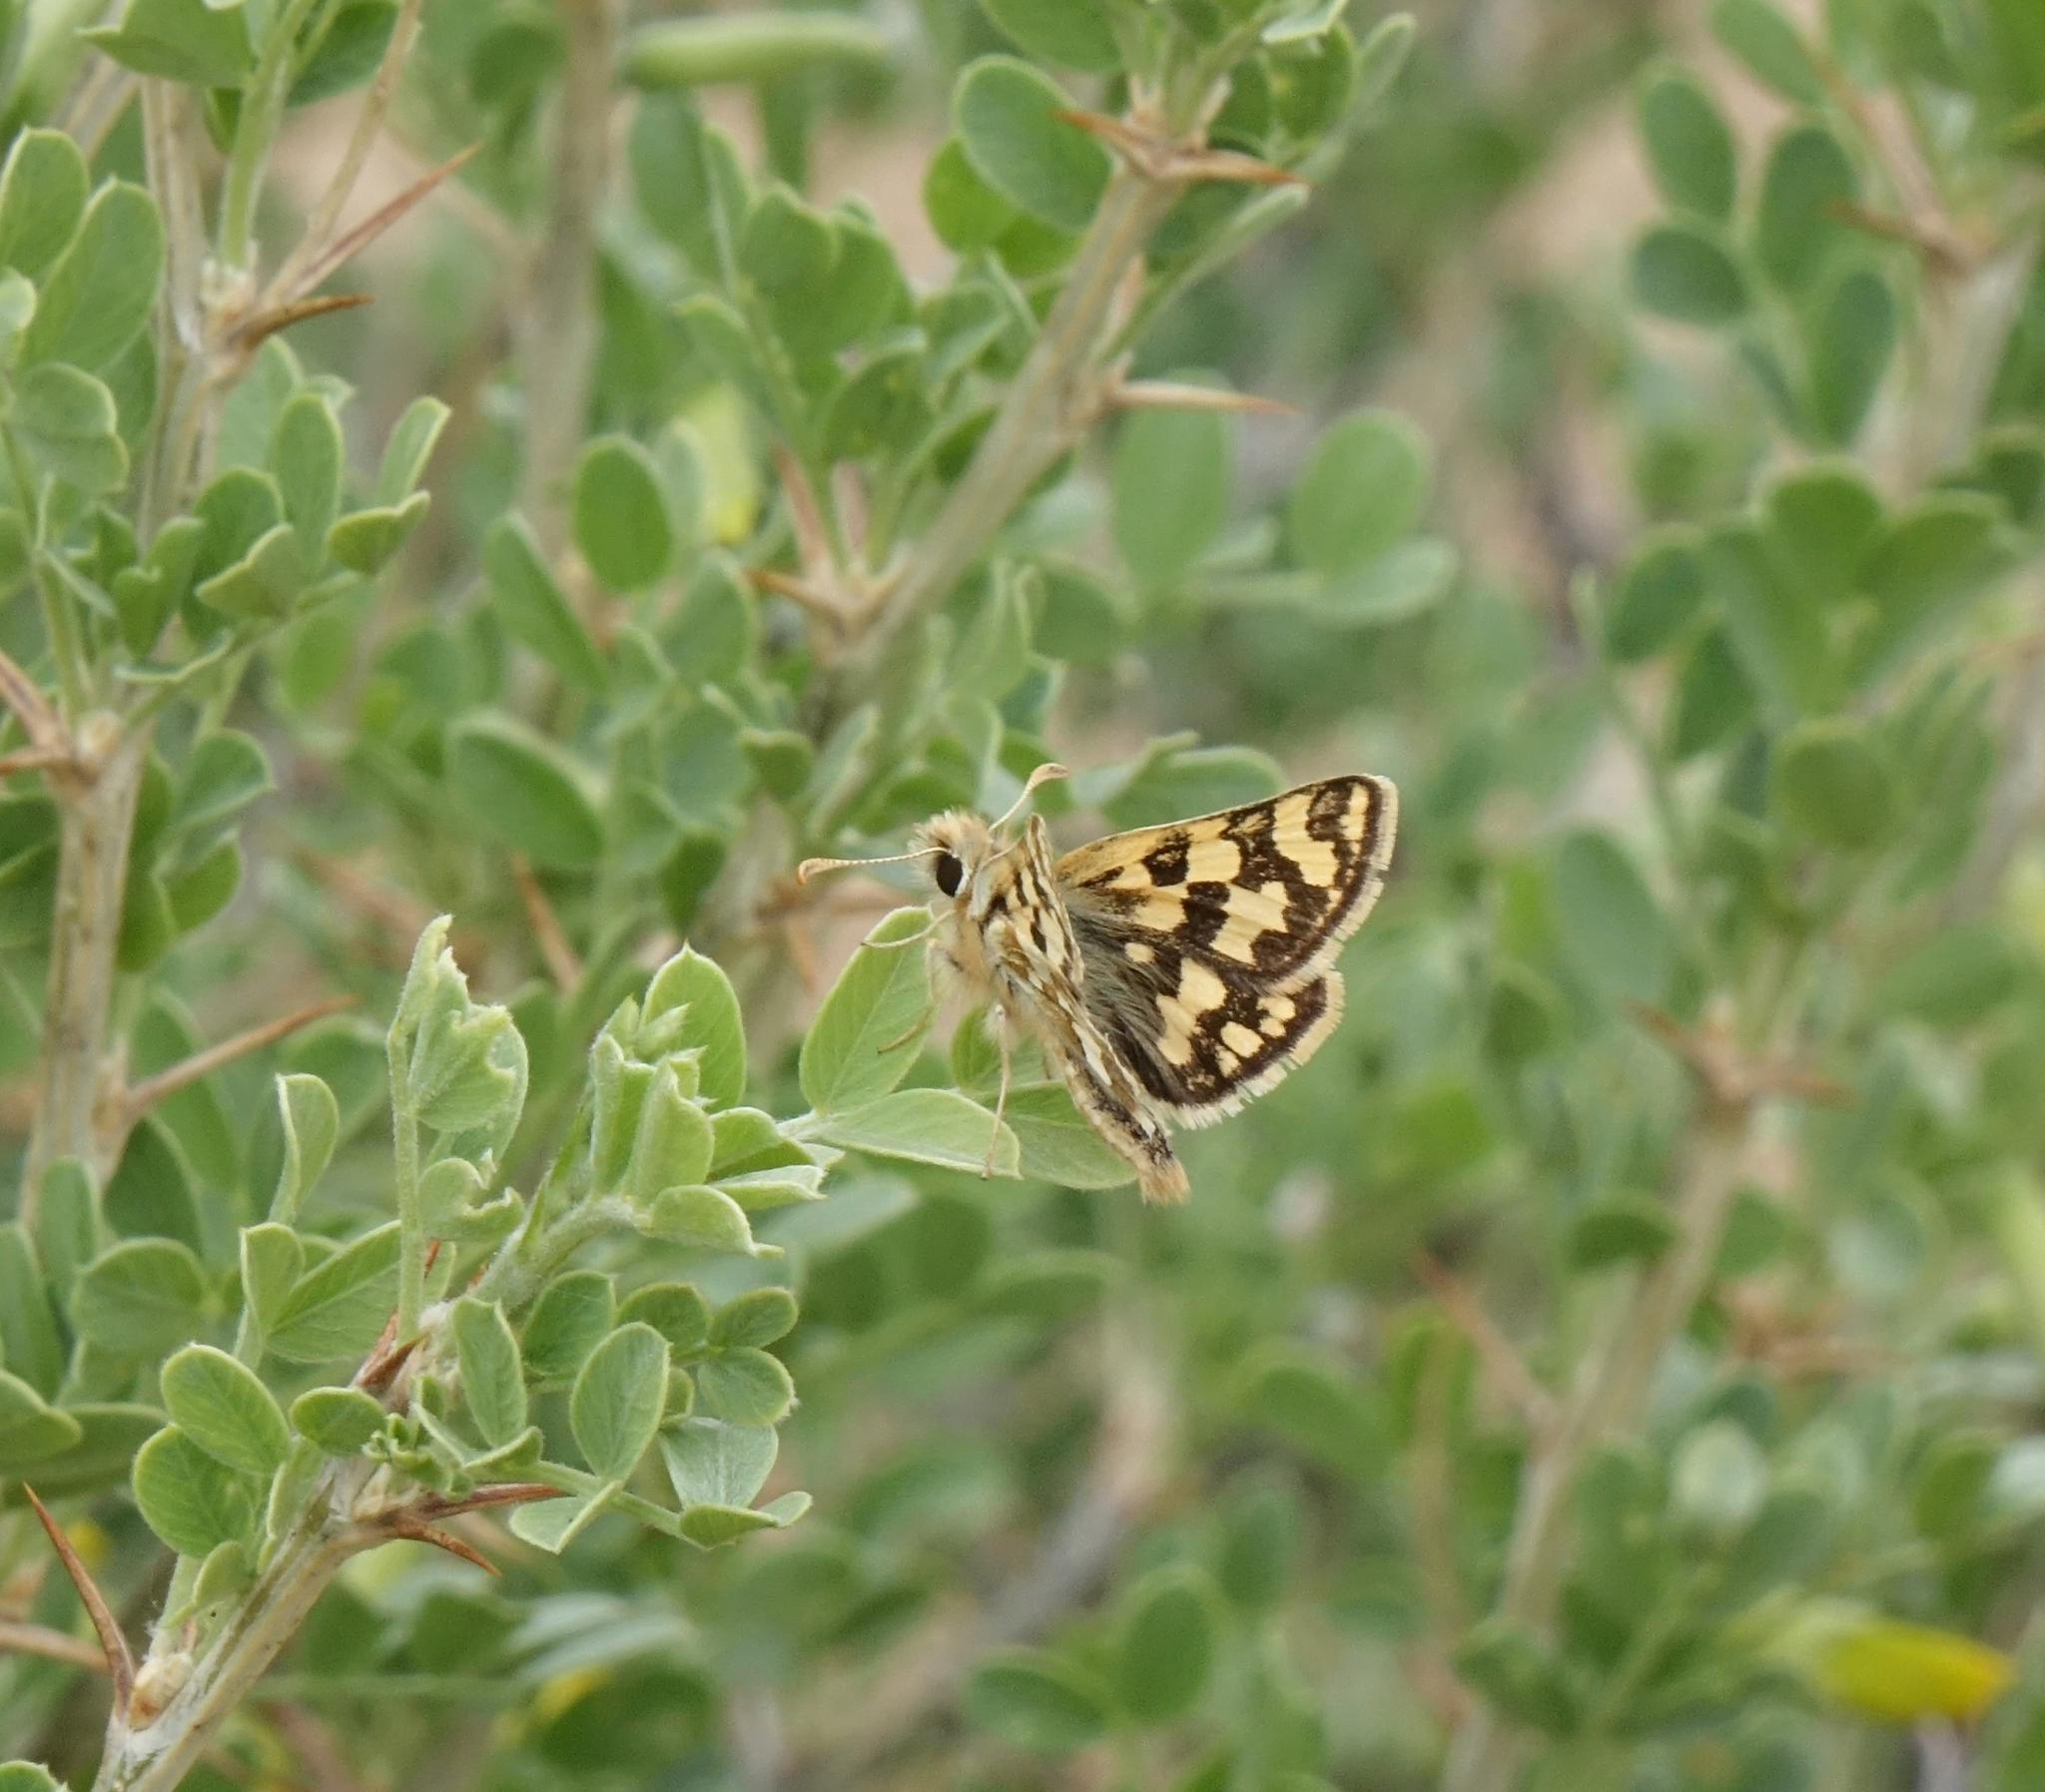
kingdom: Animalia
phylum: Arthropoda
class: Insecta
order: Lepidoptera
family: Hesperiidae
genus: Carterocephalus
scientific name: Carterocephalus argyrostigma
